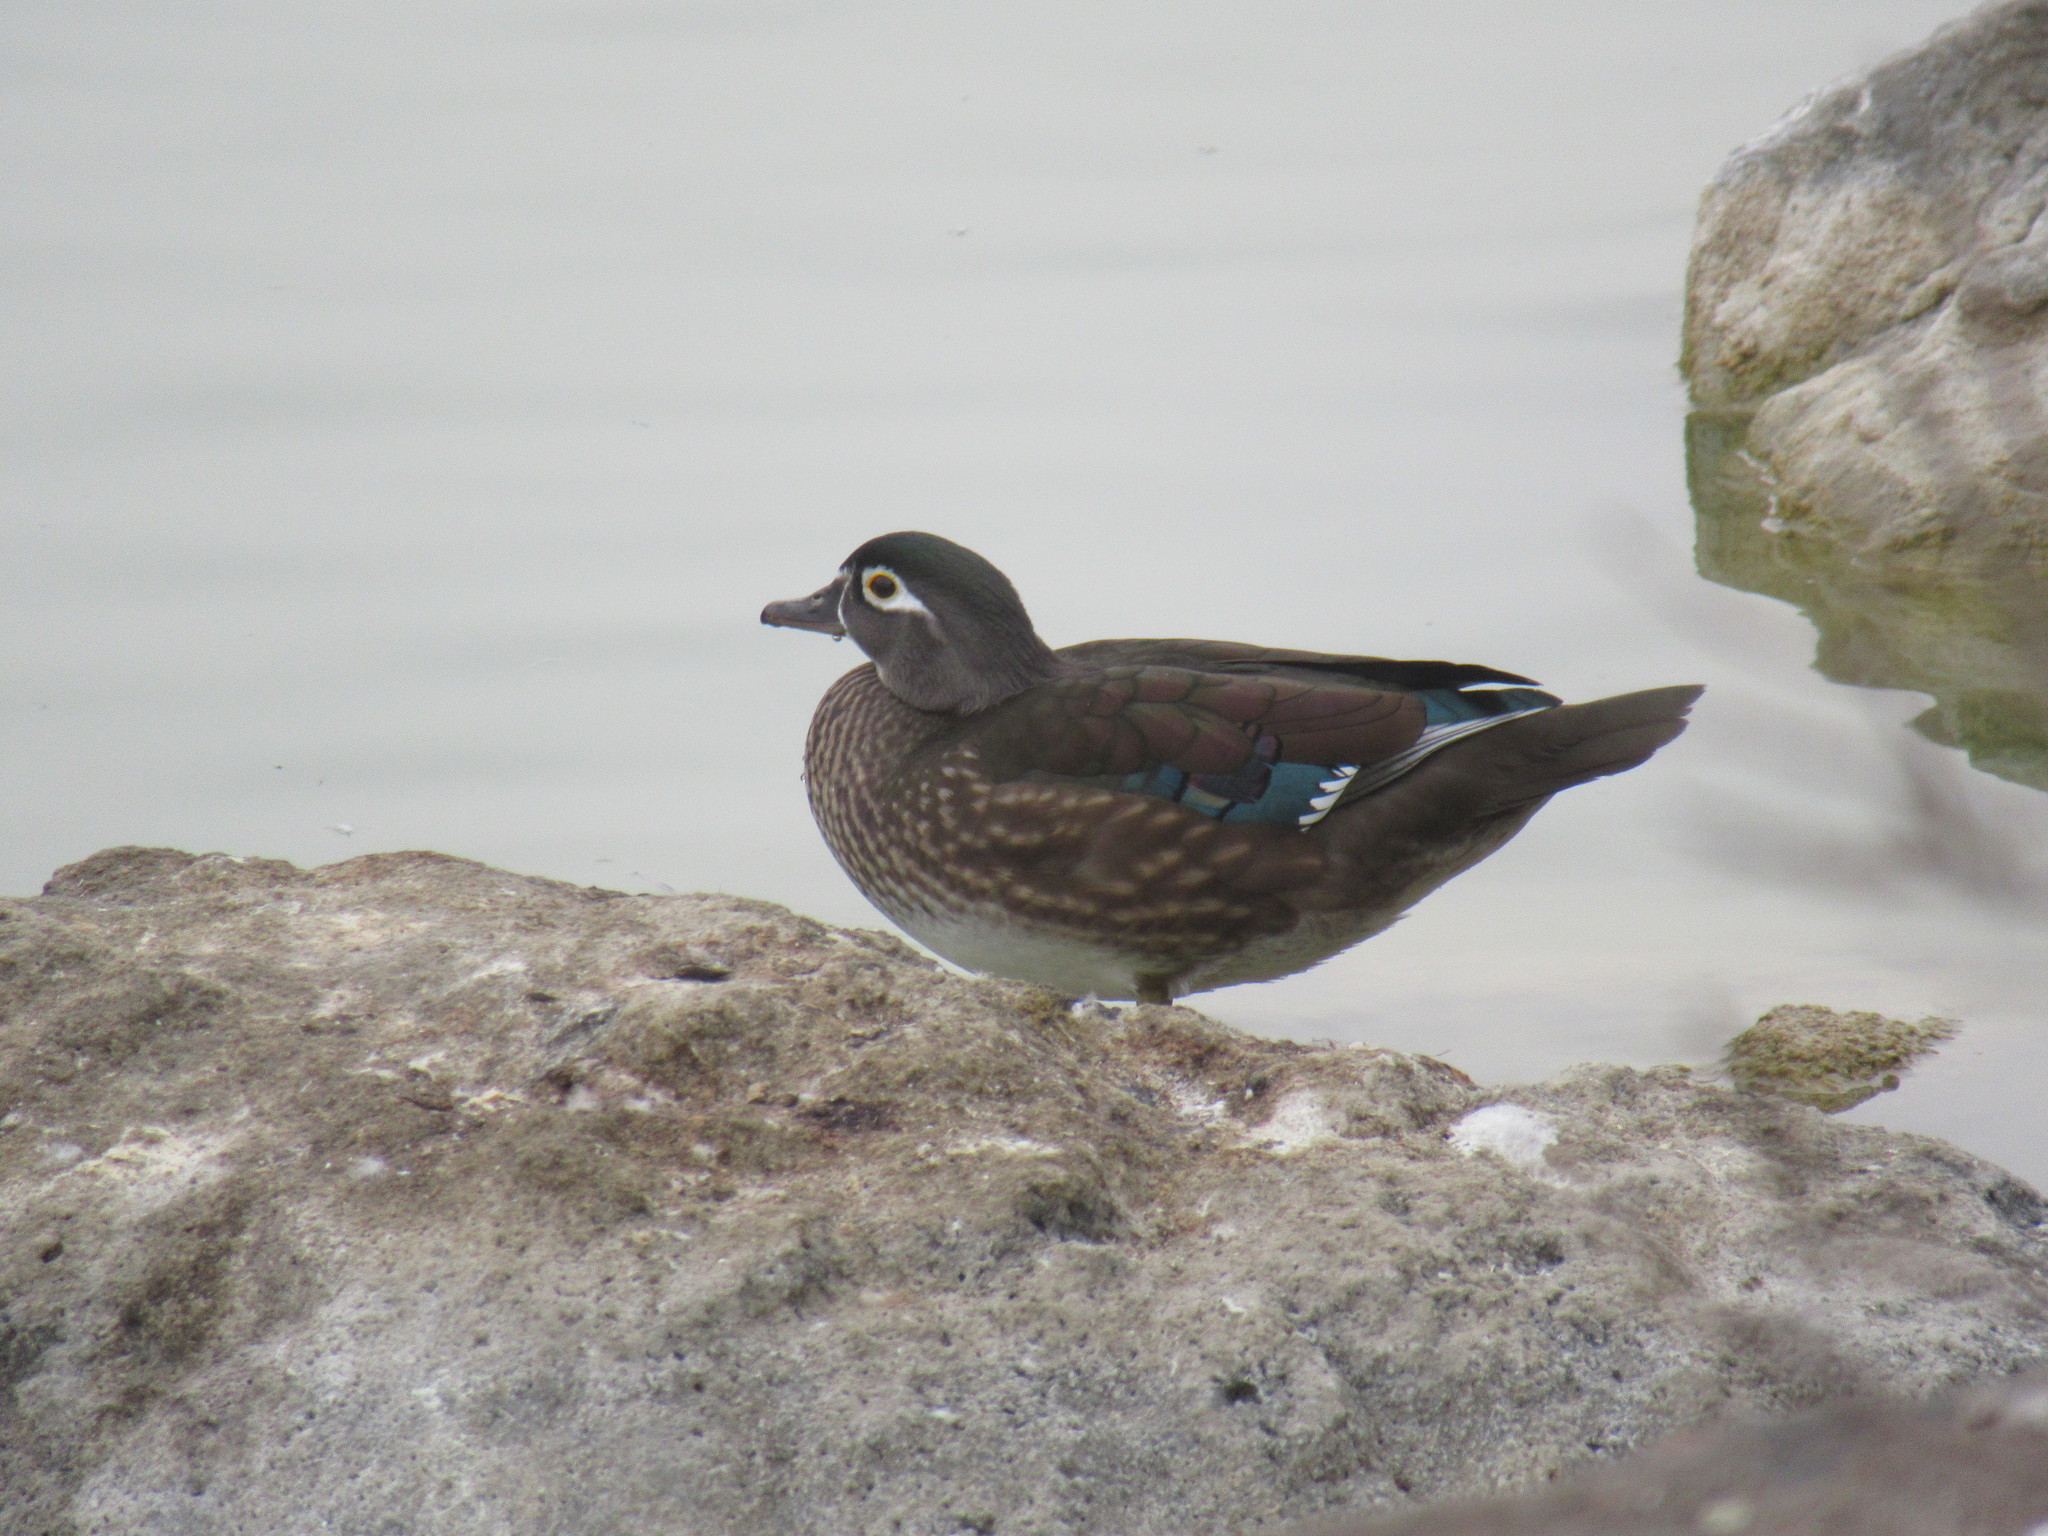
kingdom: Animalia
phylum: Chordata
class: Aves
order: Anseriformes
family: Anatidae
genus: Aix
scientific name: Aix sponsa
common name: Wood duck
